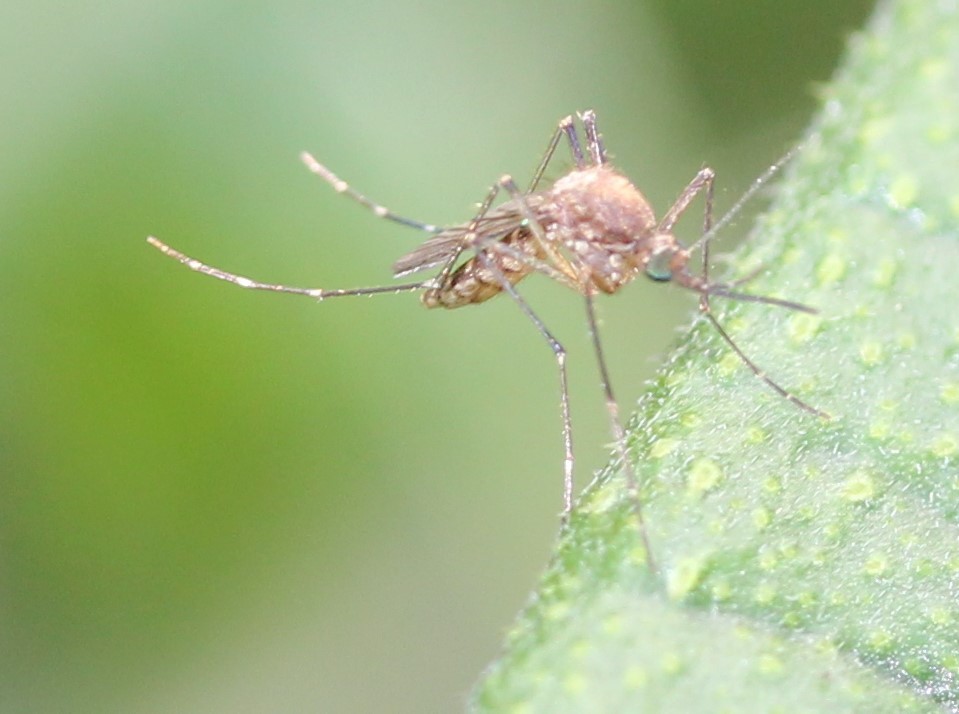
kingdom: Animalia
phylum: Arthropoda
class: Insecta
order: Diptera
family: Culicidae
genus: Aedes
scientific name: Aedes vexans
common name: Inland floodwater mosquito
